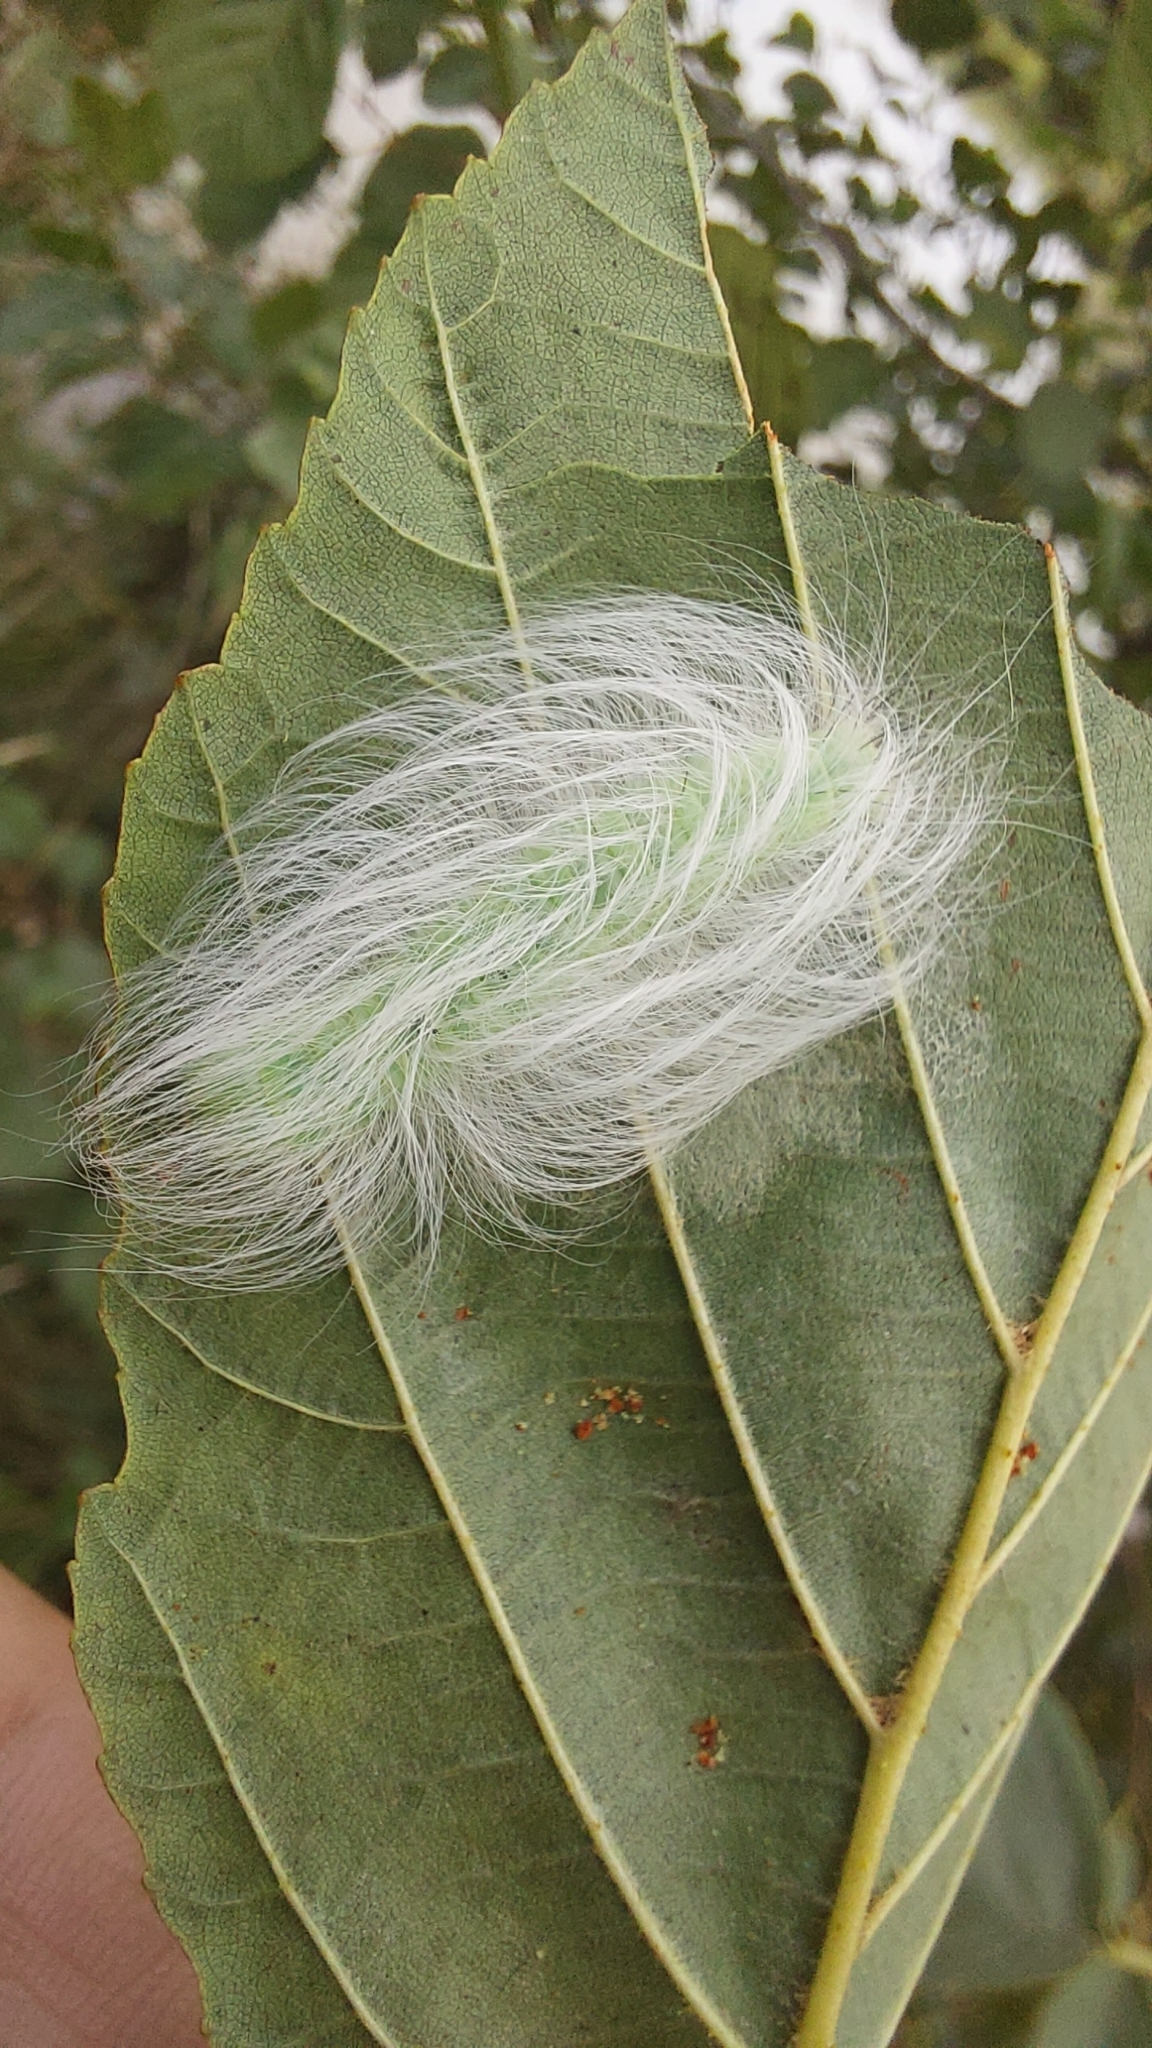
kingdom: Animalia
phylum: Arthropoda
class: Insecta
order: Lepidoptera
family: Noctuidae
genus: Acronicta
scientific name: Acronicta leporina
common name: Miller
